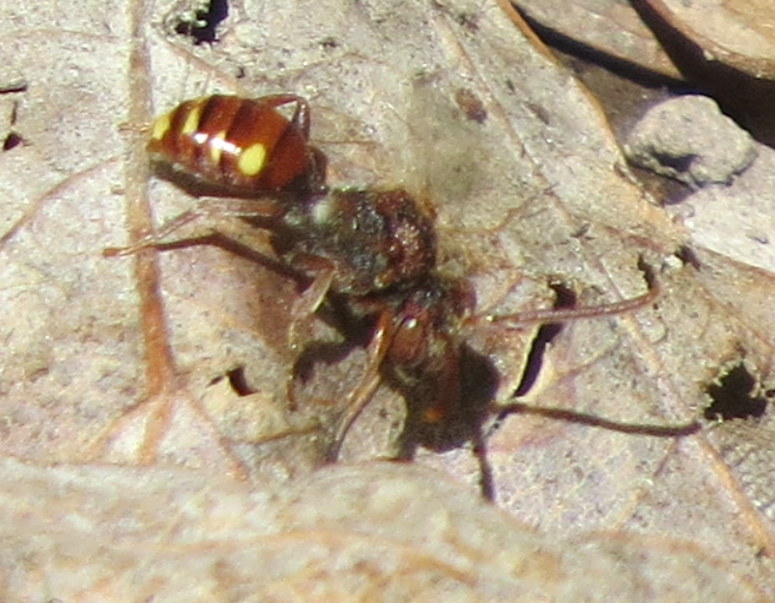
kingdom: Animalia
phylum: Arthropoda
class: Insecta
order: Hymenoptera
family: Apidae
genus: Nomada
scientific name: Nomada
